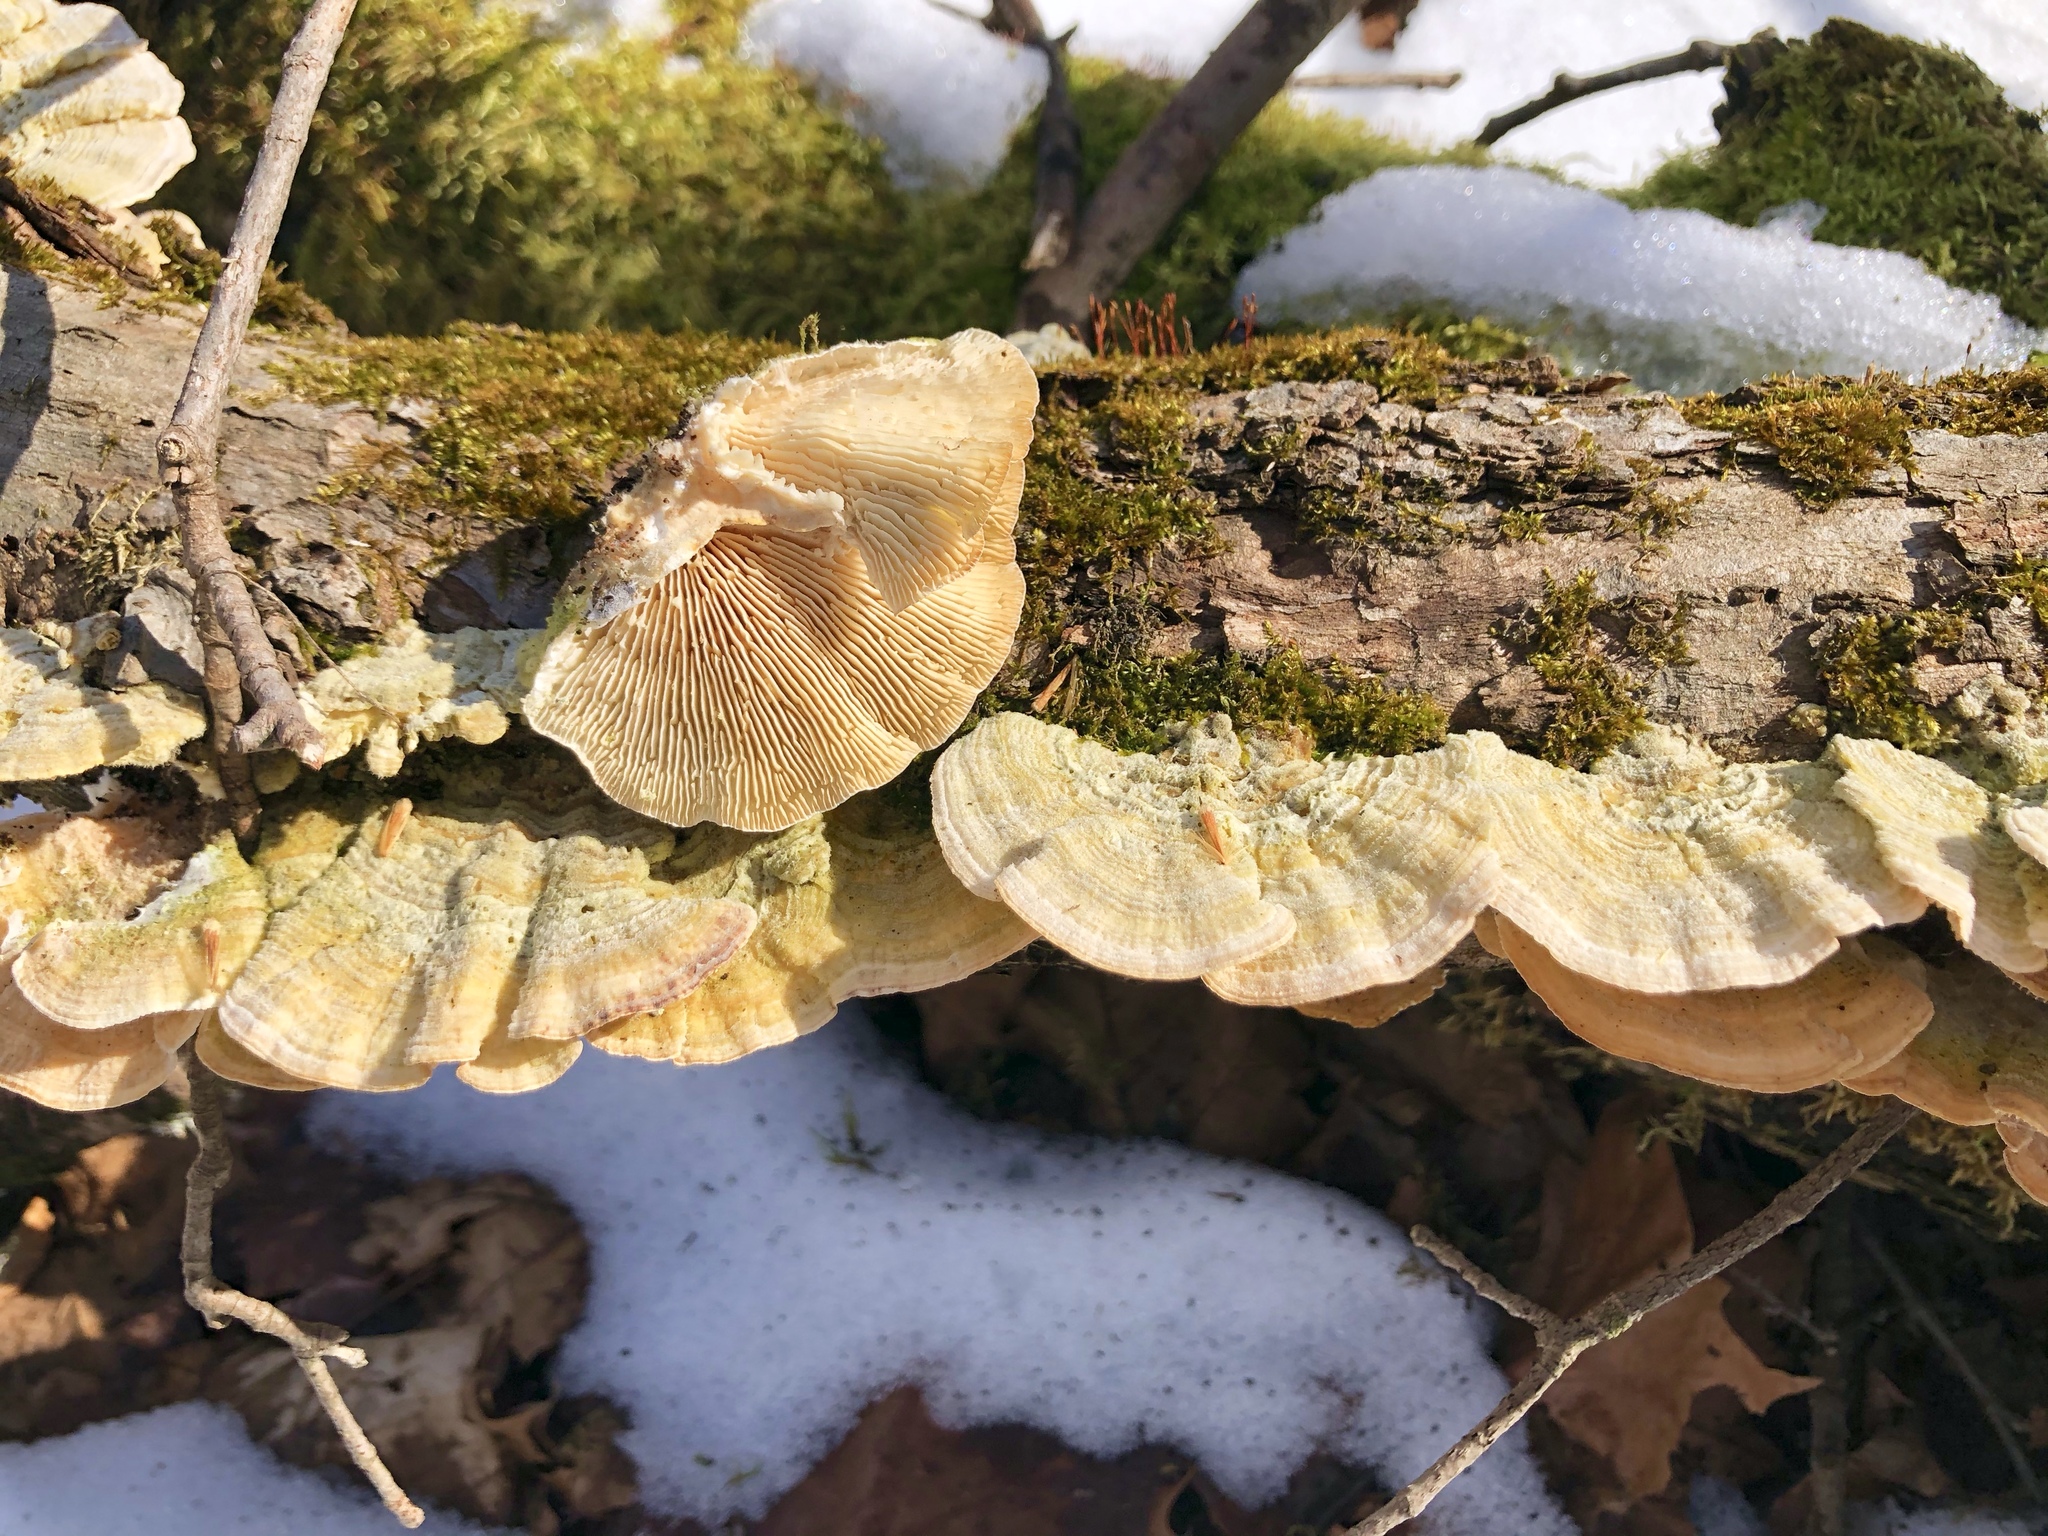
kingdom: Fungi
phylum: Basidiomycota
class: Agaricomycetes
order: Polyporales
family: Polyporaceae
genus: Lenzites
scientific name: Lenzites betulinus
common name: Birch mazegill
